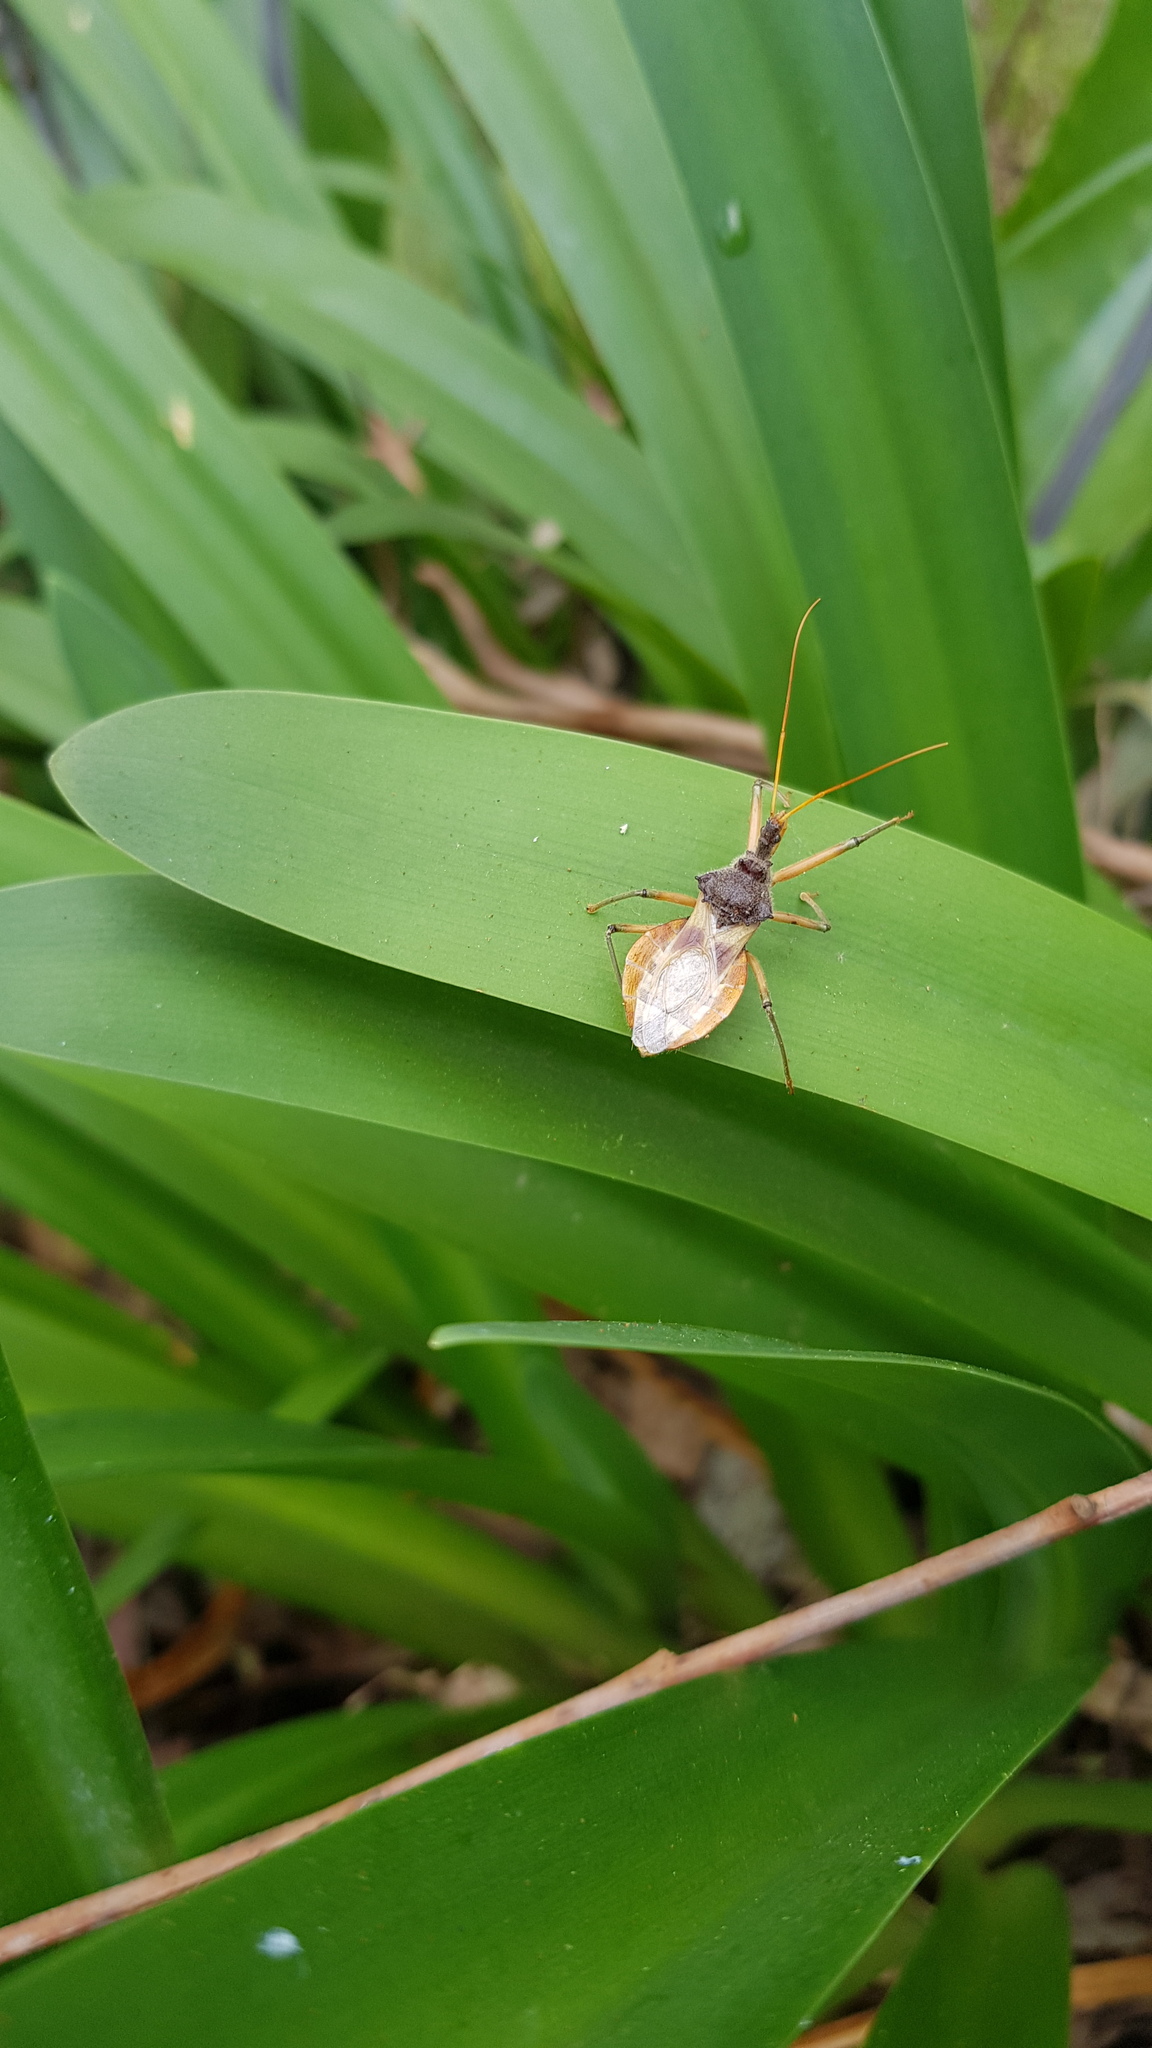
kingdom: Animalia
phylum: Arthropoda
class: Insecta
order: Hemiptera
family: Reduviidae
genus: Pristhesancus
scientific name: Pristhesancus plagipennis
